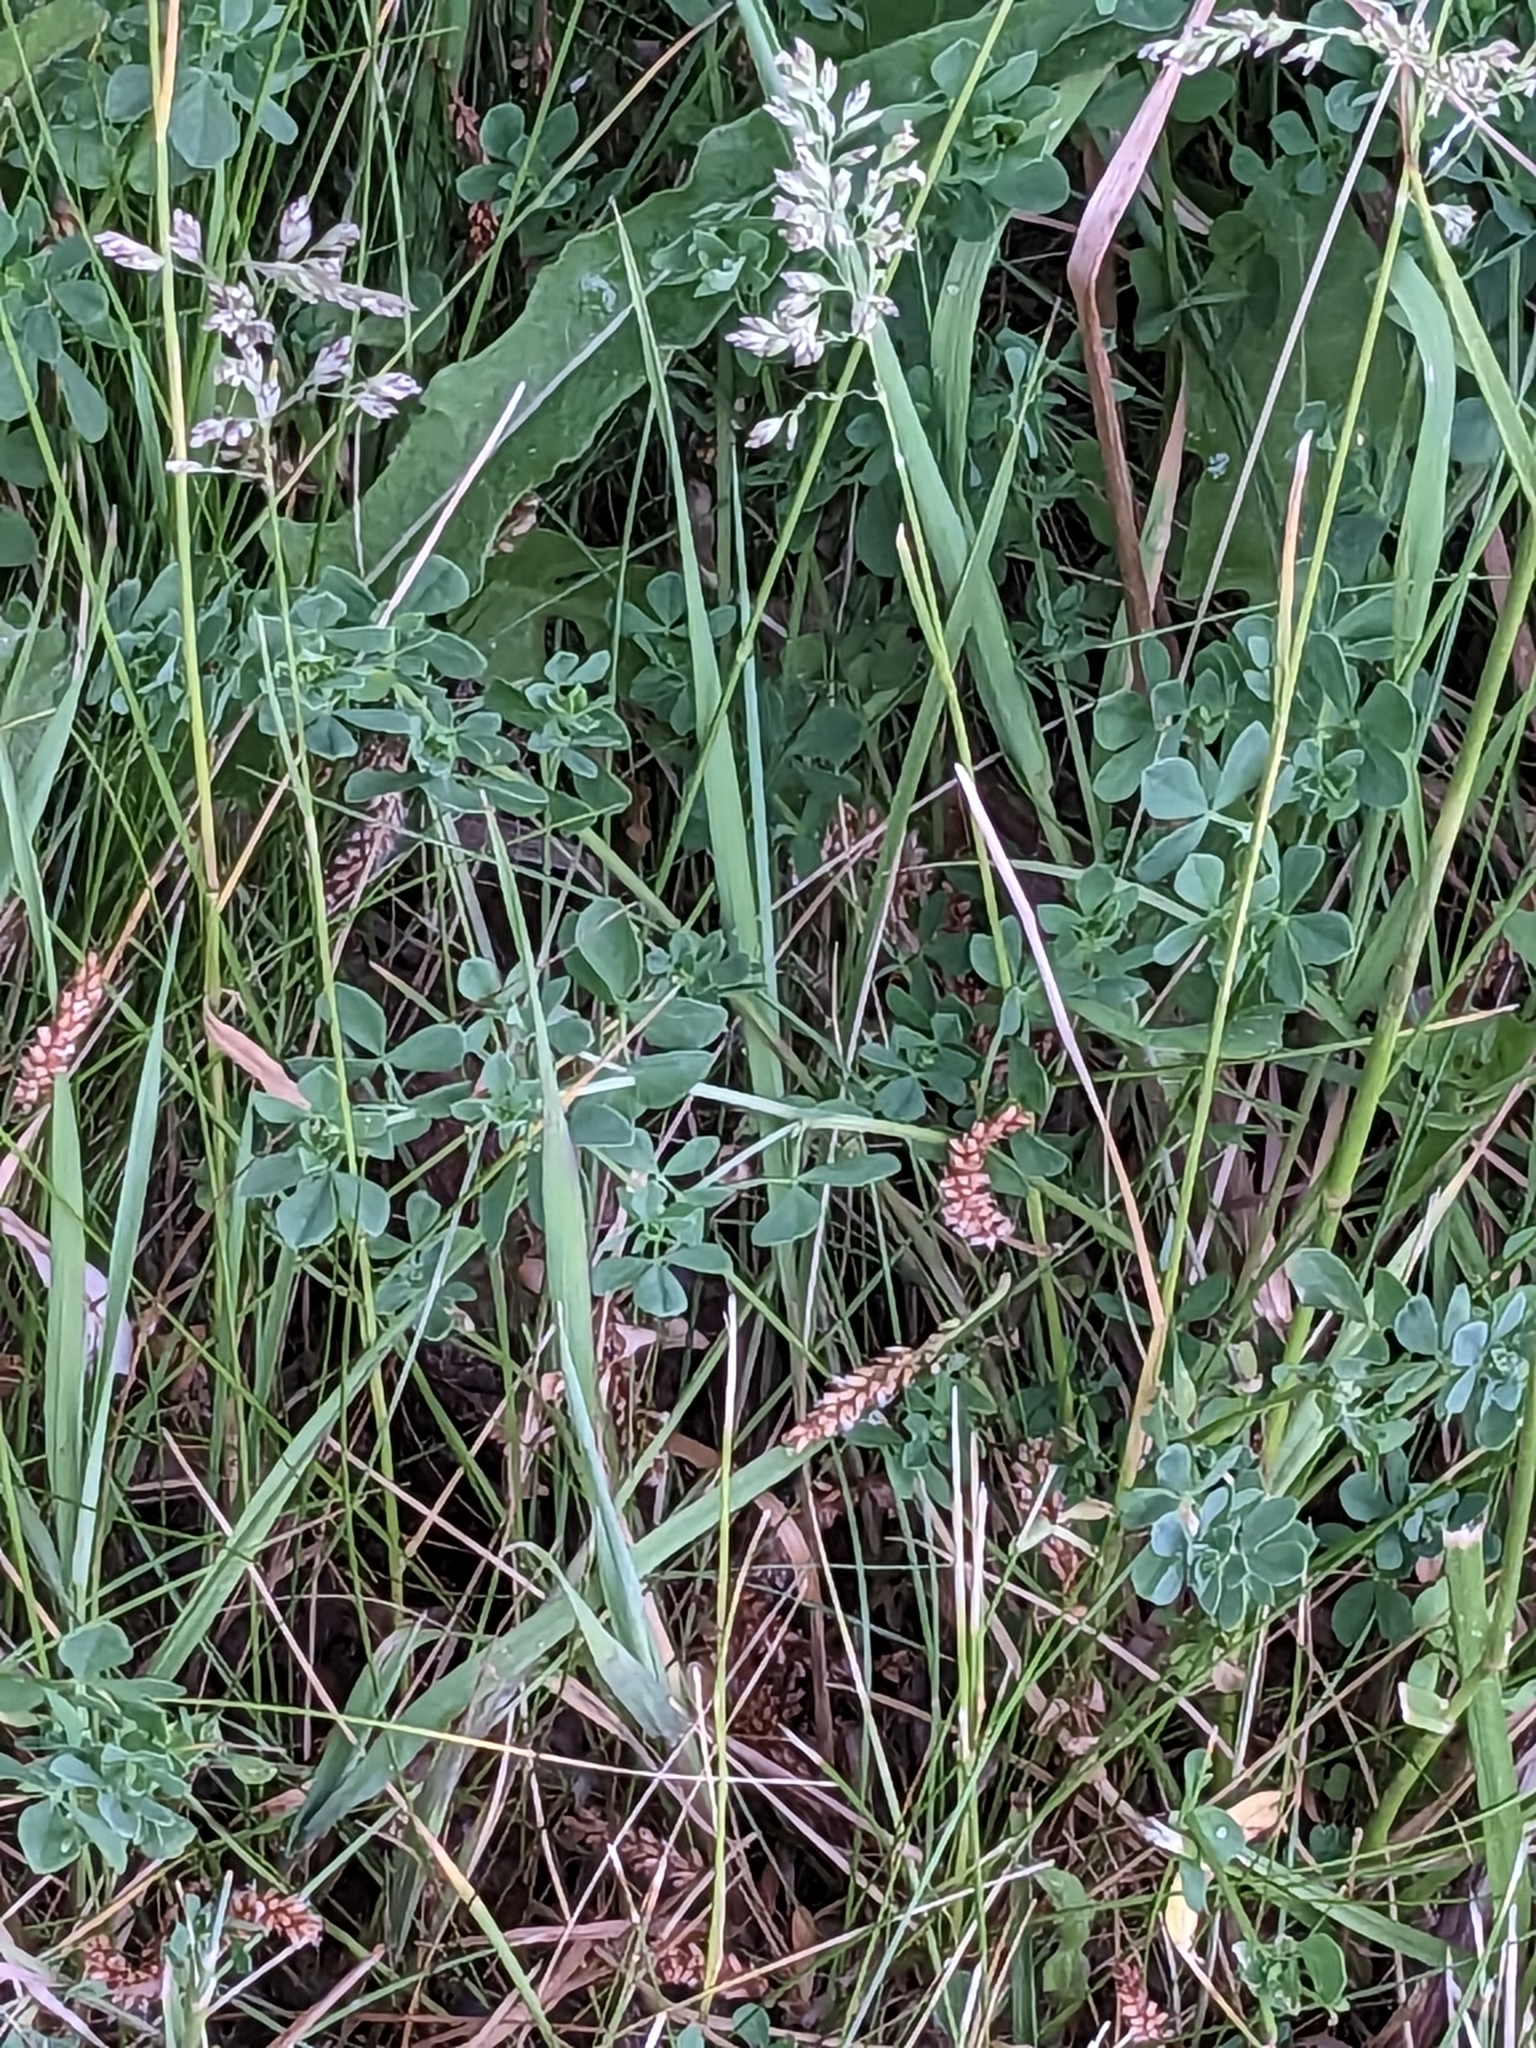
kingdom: Plantae
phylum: Tracheophyta
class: Magnoliopsida
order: Fabales
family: Fabaceae
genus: Lotus
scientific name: Lotus corniculatus
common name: Common bird's-foot-trefoil
